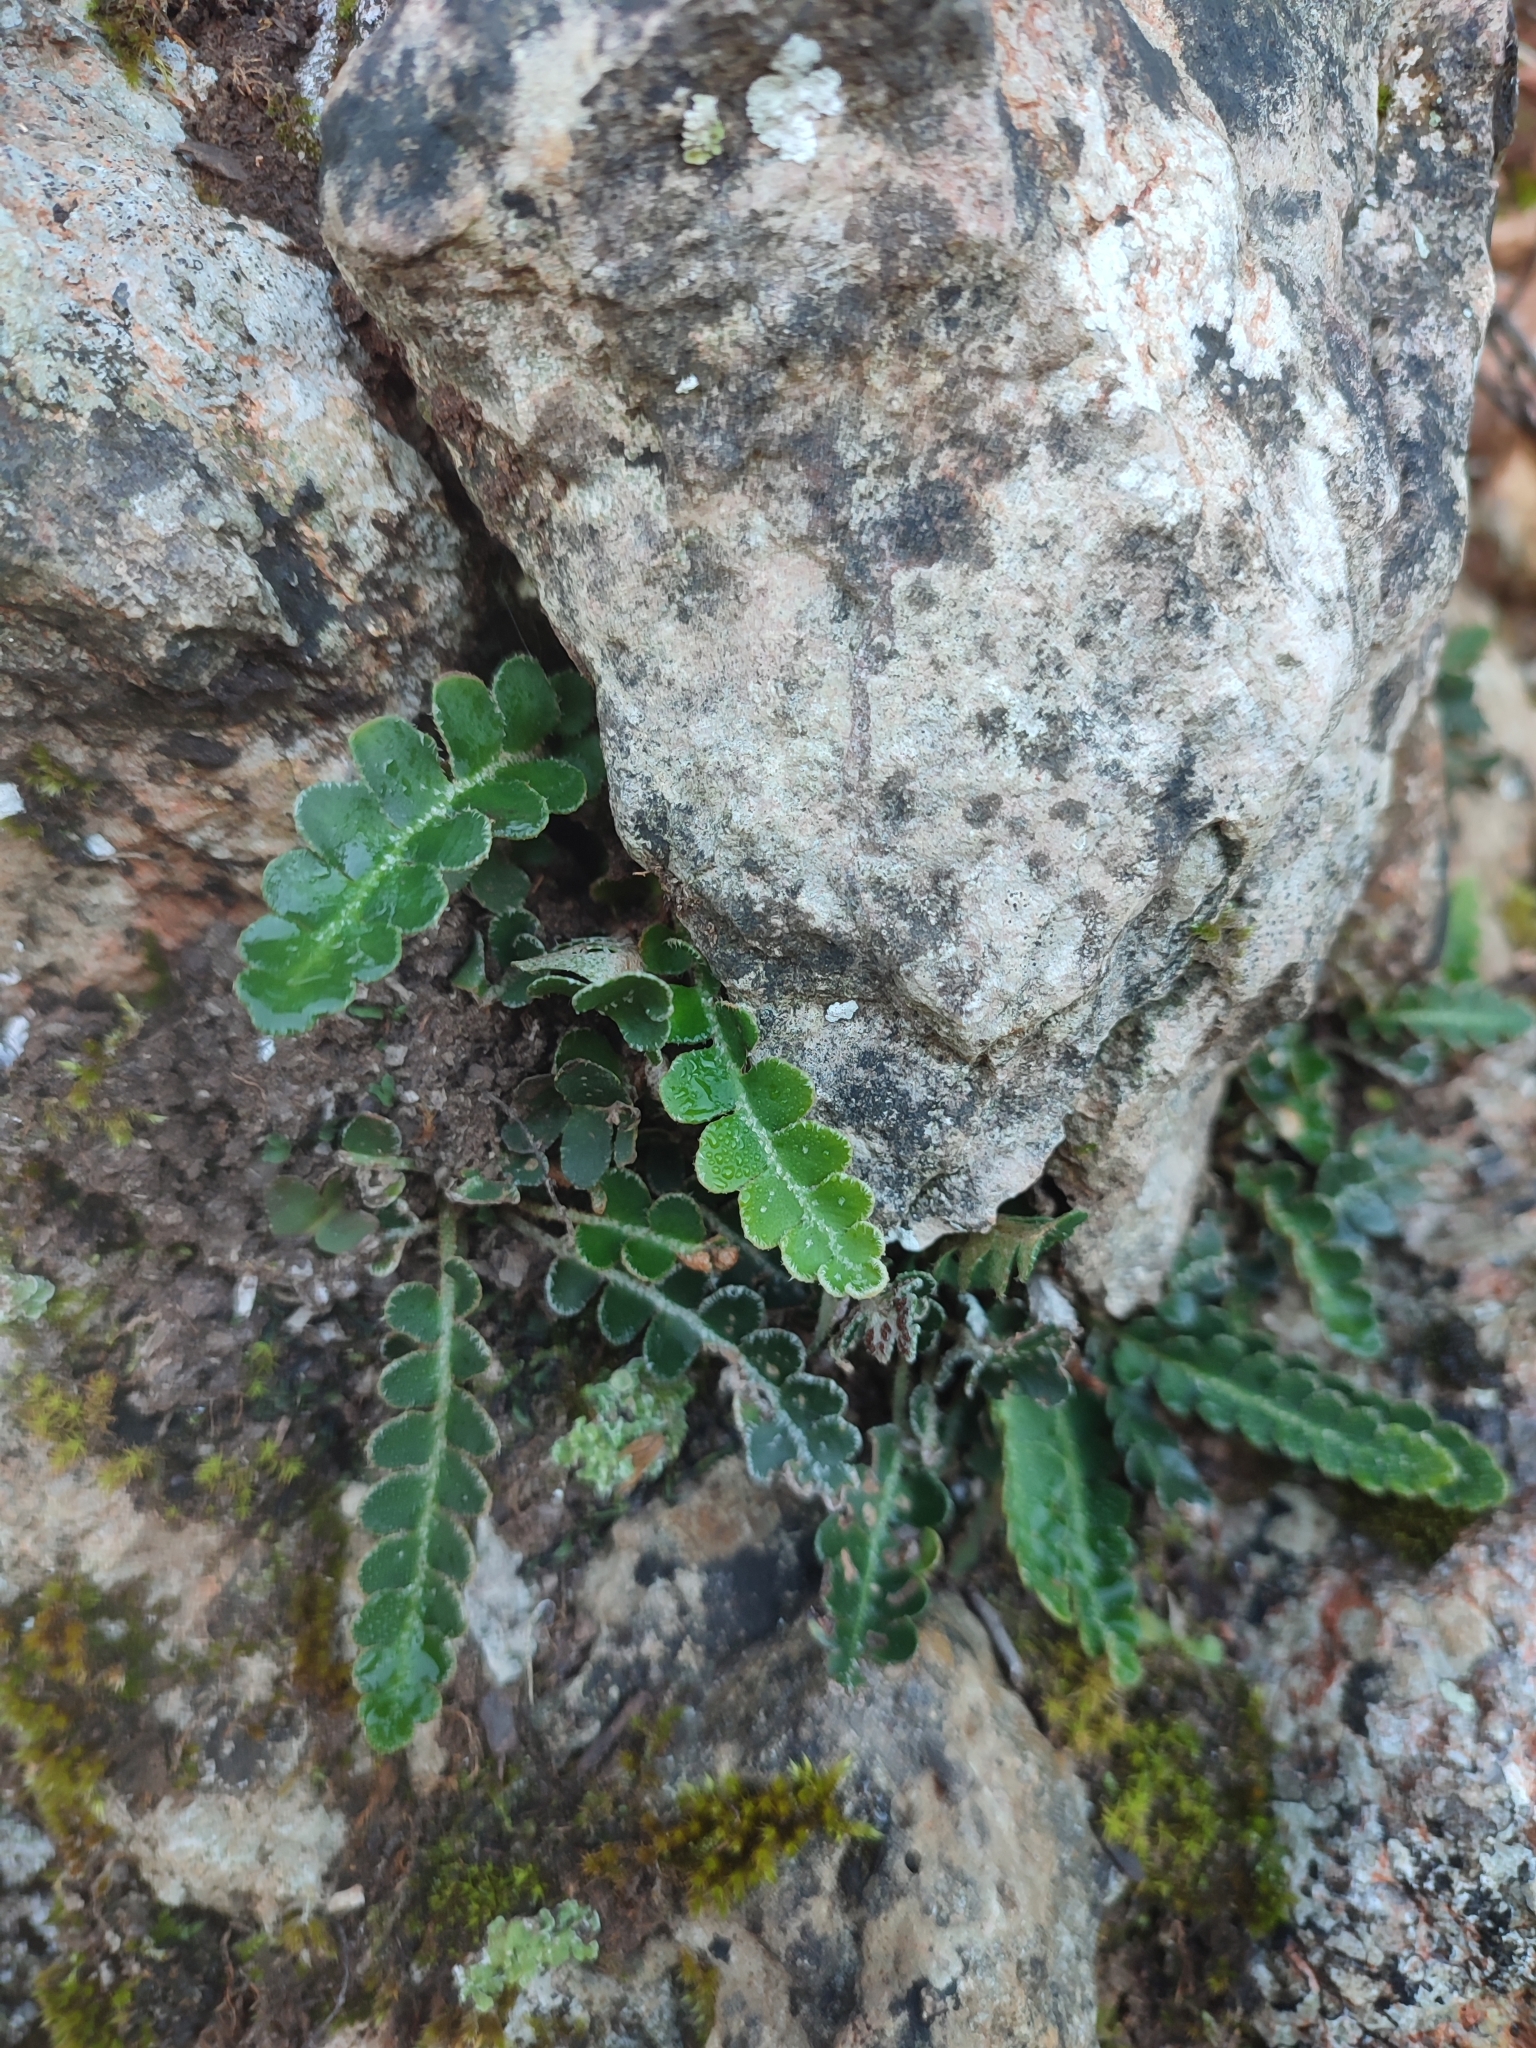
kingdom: Plantae
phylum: Tracheophyta
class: Polypodiopsida
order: Polypodiales
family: Aspleniaceae
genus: Asplenium
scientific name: Asplenium ceterach
